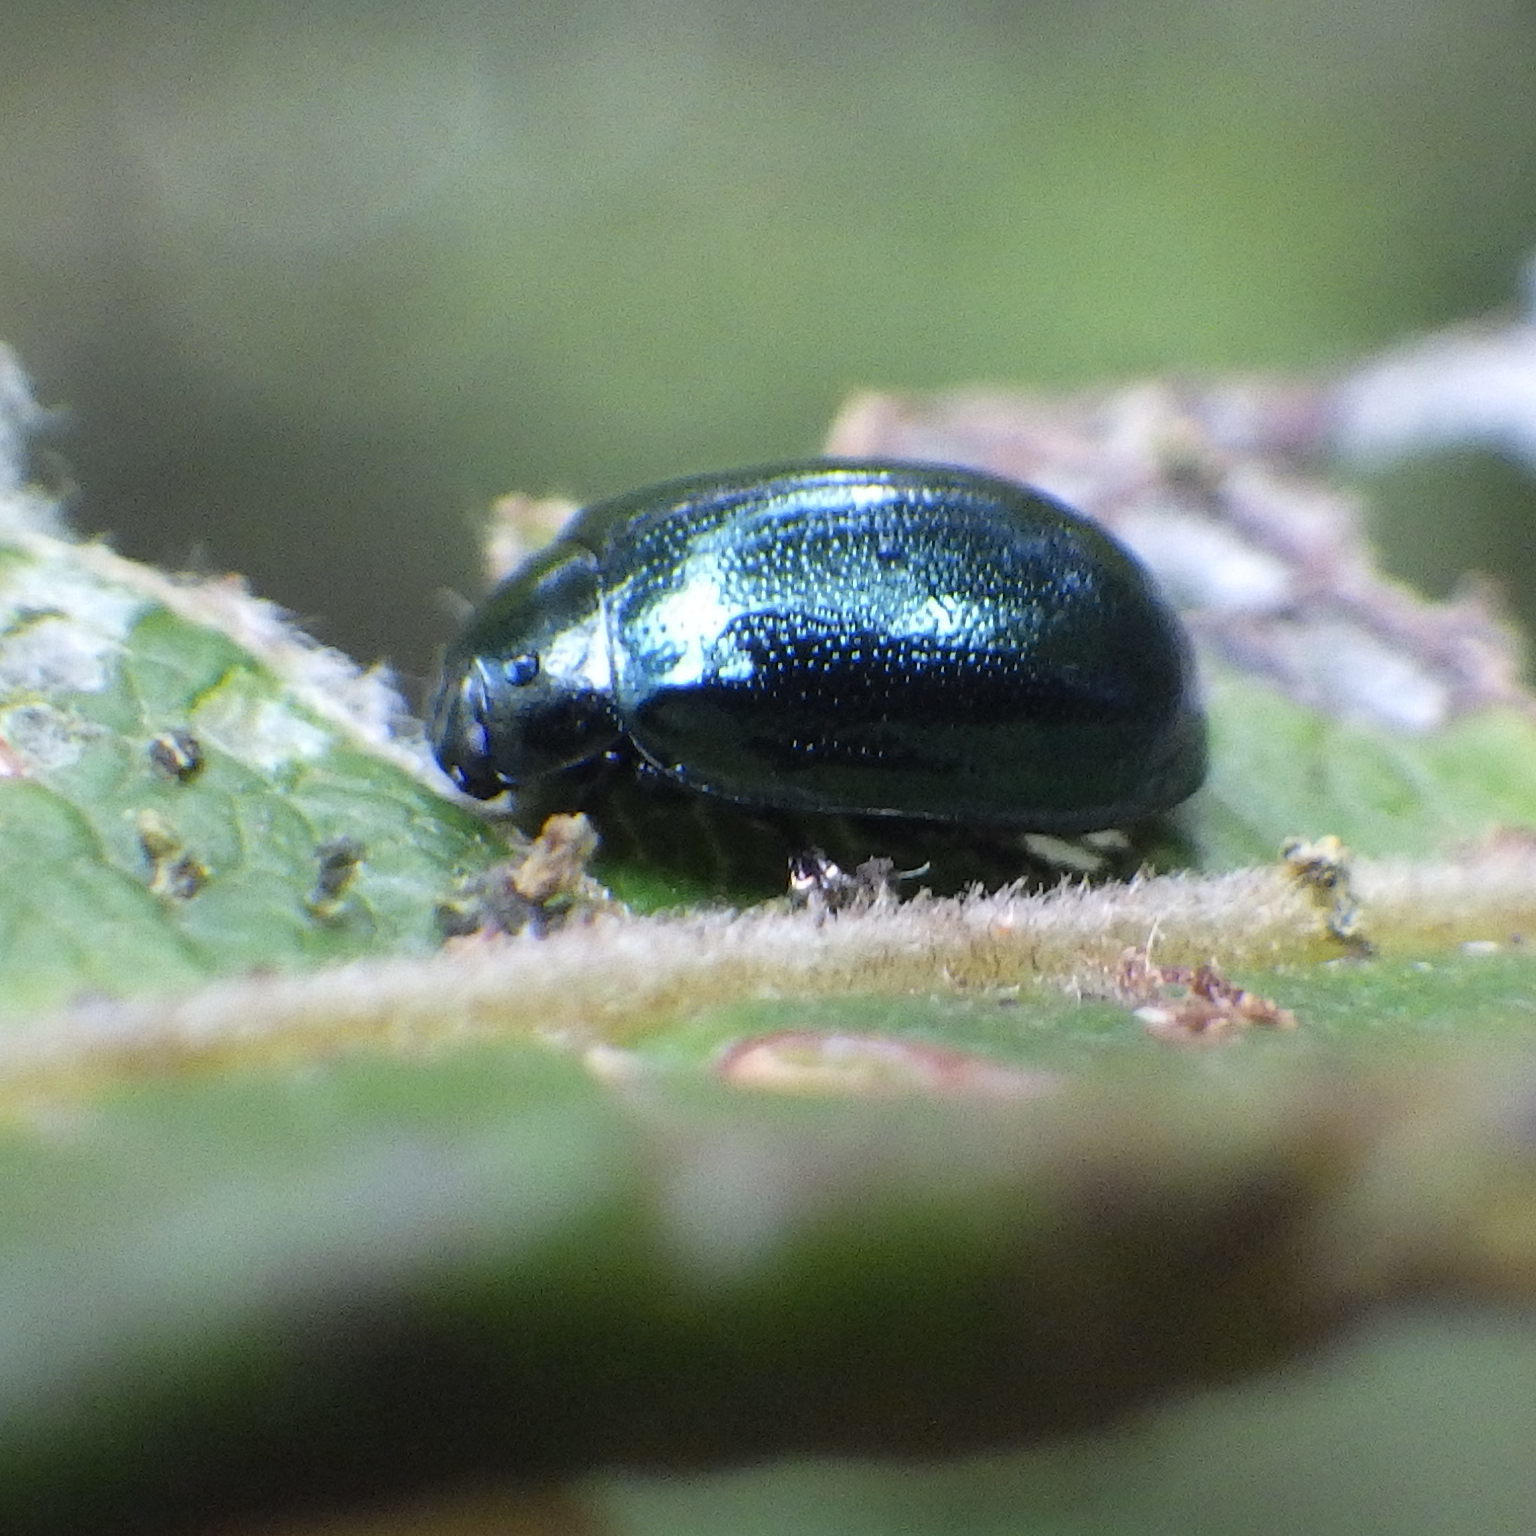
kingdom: Animalia
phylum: Arthropoda
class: Insecta
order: Coleoptera
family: Chrysomelidae
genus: Plagiodera
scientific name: Plagiodera versicolora
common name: Imported willow leaf beetle
